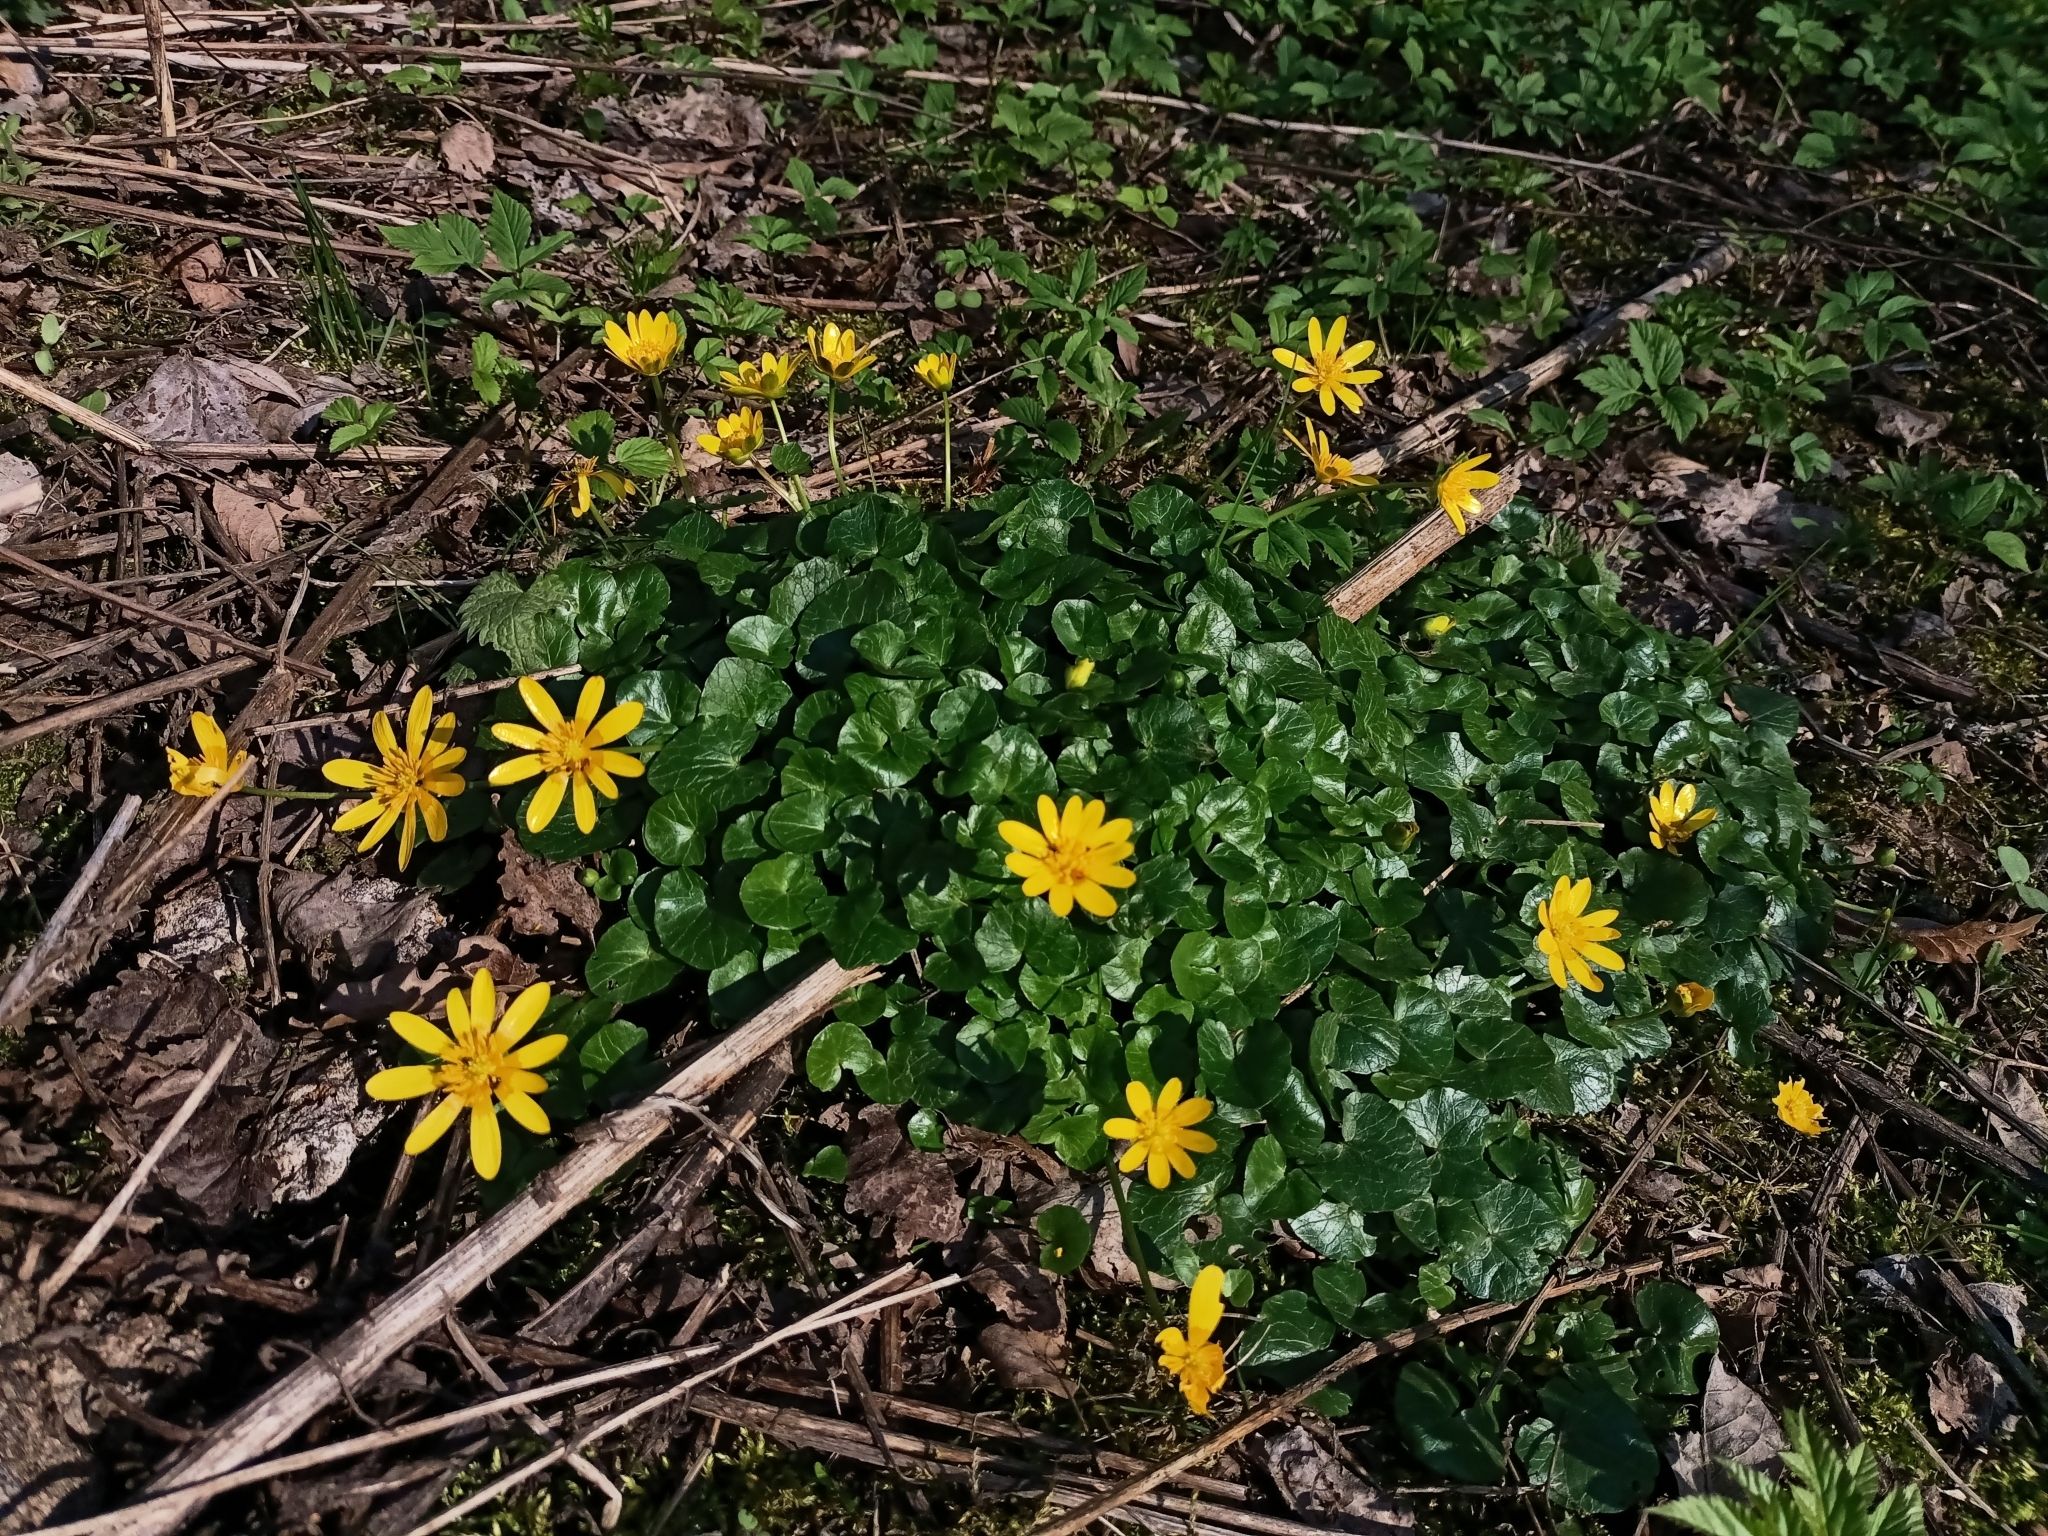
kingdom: Plantae
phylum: Tracheophyta
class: Magnoliopsida
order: Ranunculales
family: Ranunculaceae
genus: Ficaria
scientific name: Ficaria verna
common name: Lesser celandine
